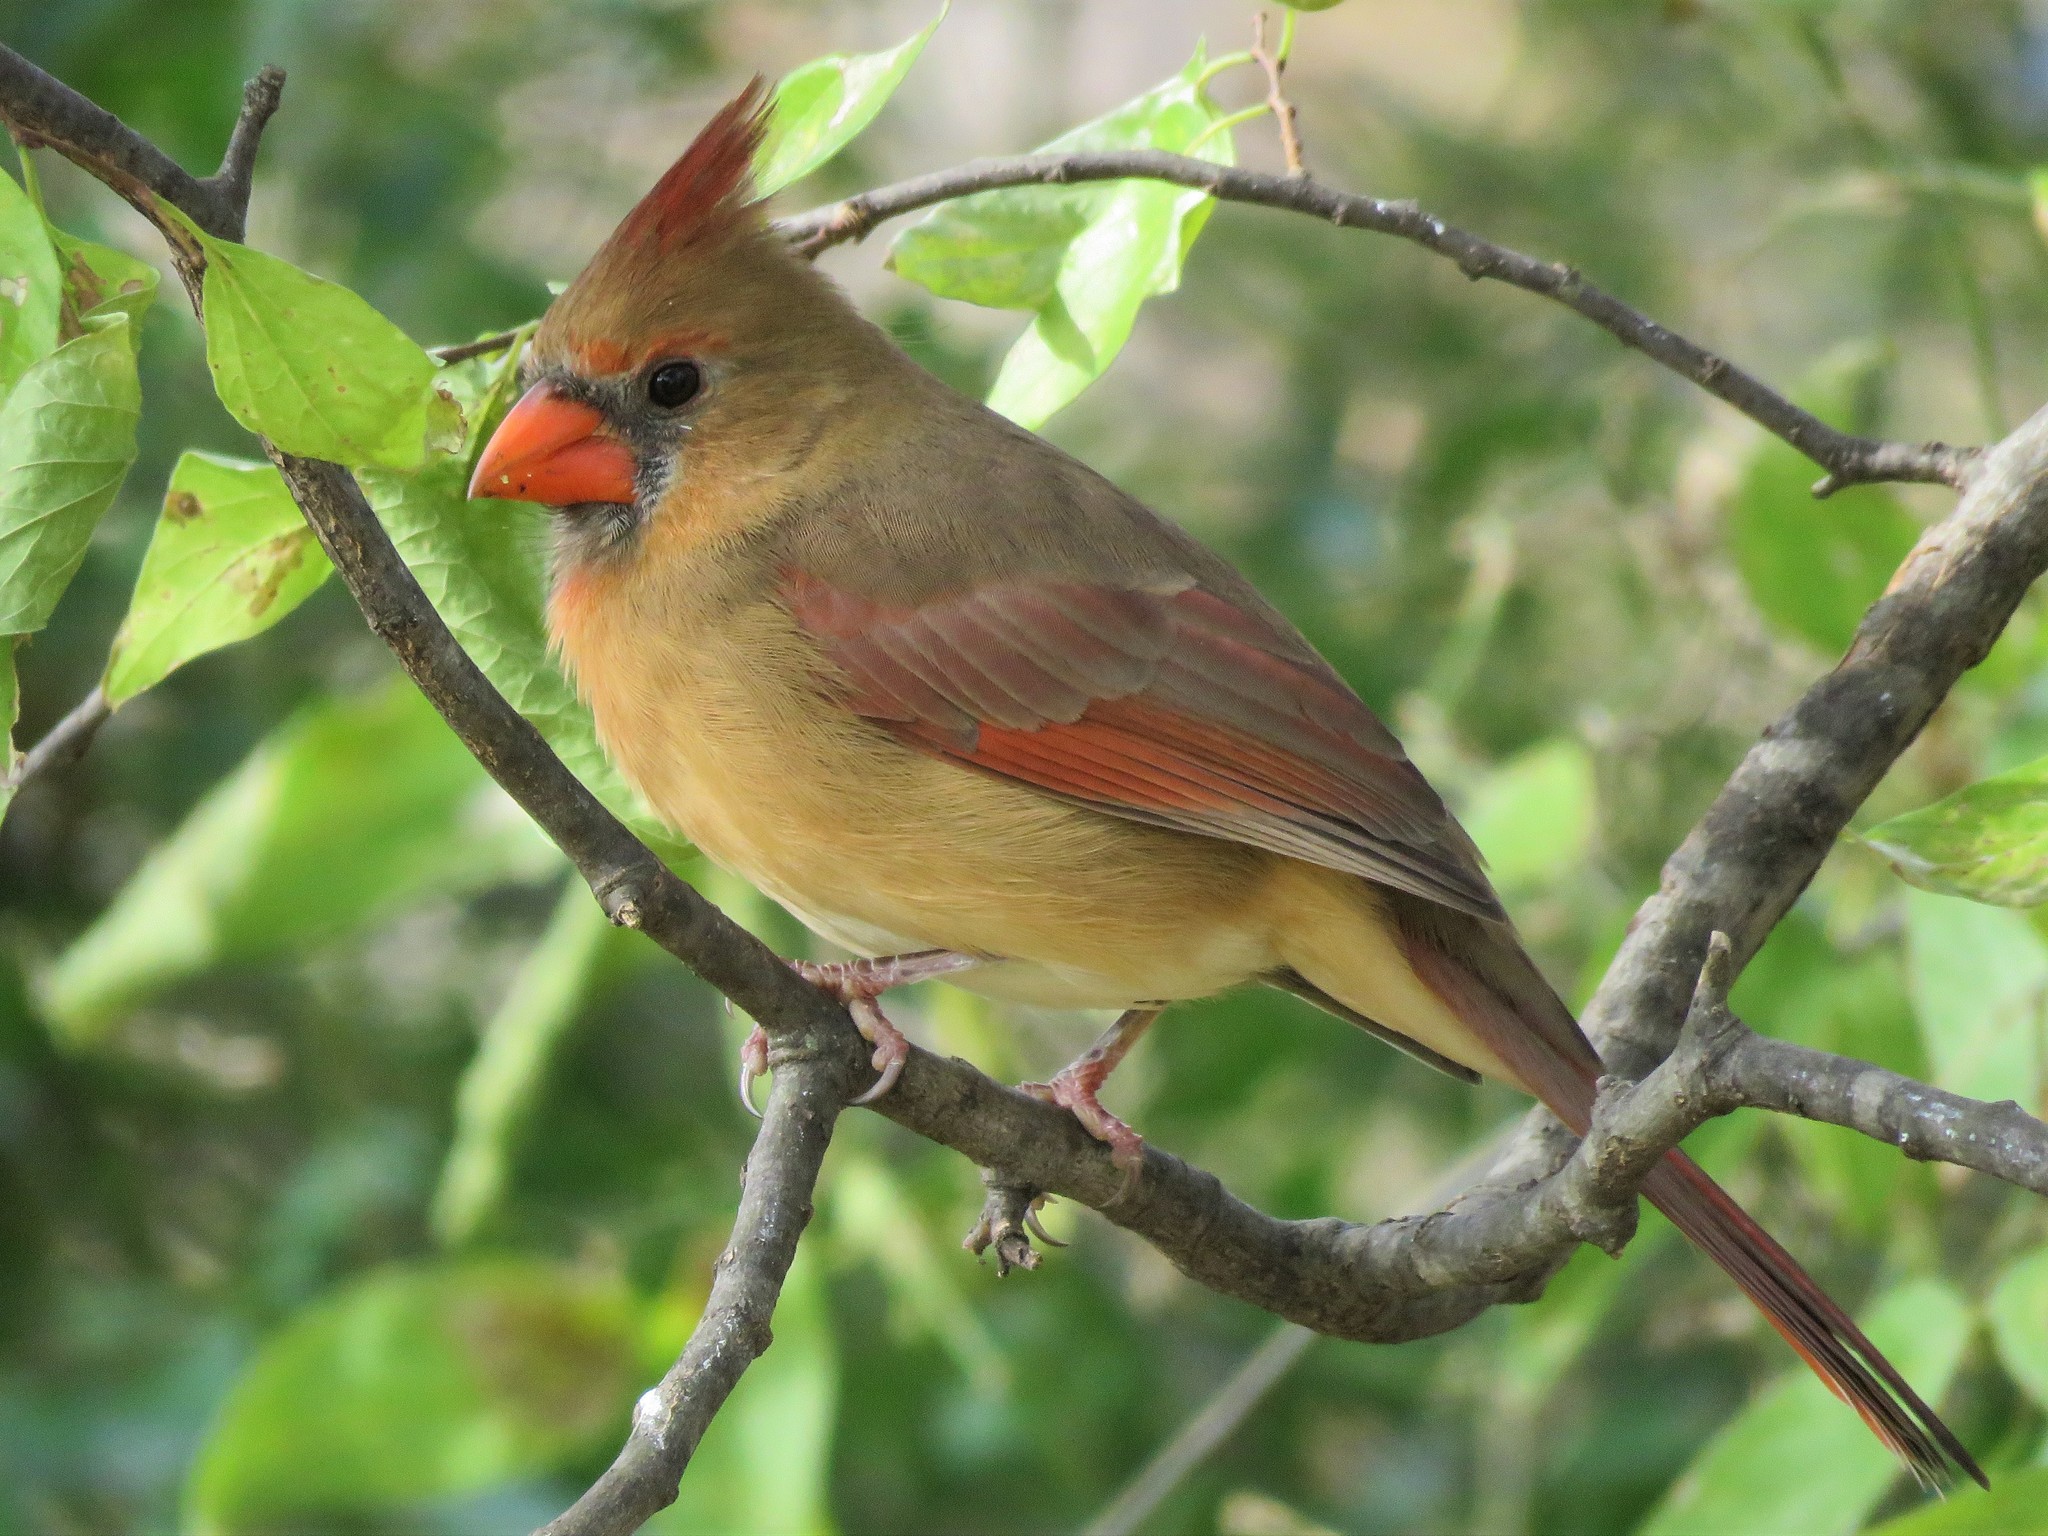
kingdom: Animalia
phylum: Chordata
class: Aves
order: Passeriformes
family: Cardinalidae
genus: Cardinalis
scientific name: Cardinalis cardinalis
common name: Northern cardinal
